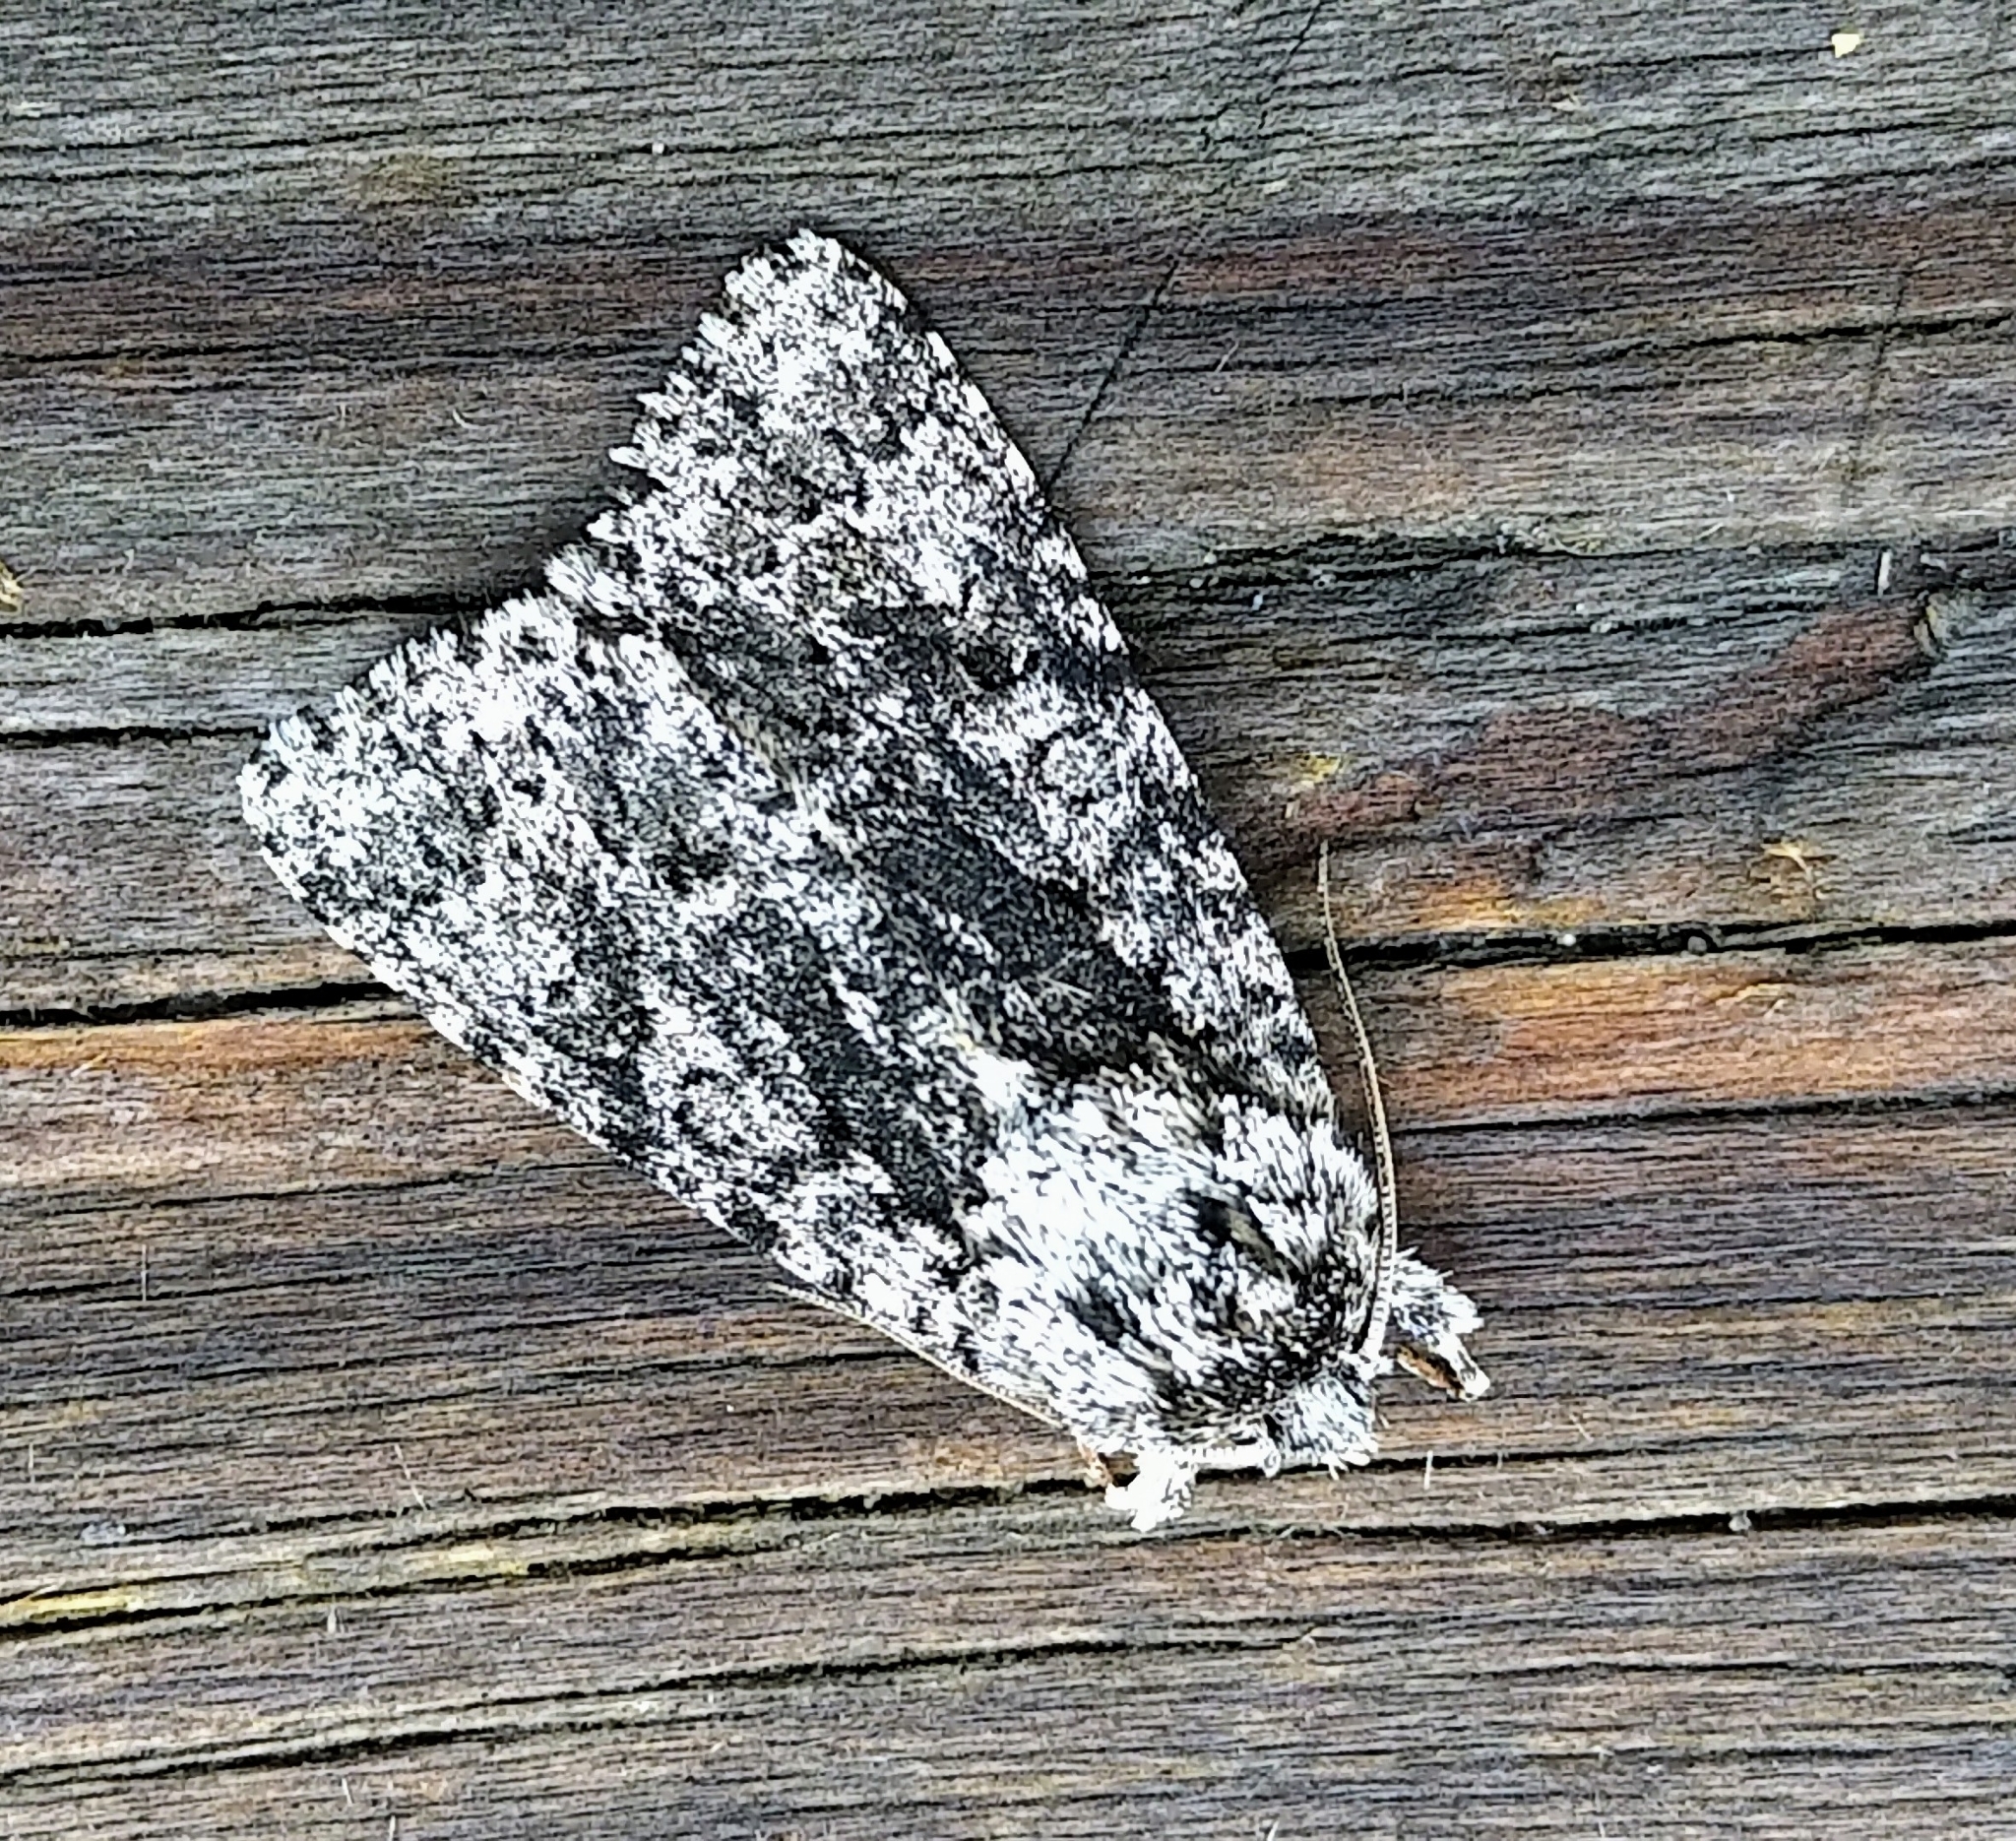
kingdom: Animalia
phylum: Arthropoda
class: Insecta
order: Lepidoptera
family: Noctuidae
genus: Acronicta
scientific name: Acronicta impressa
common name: Impressed dagger
